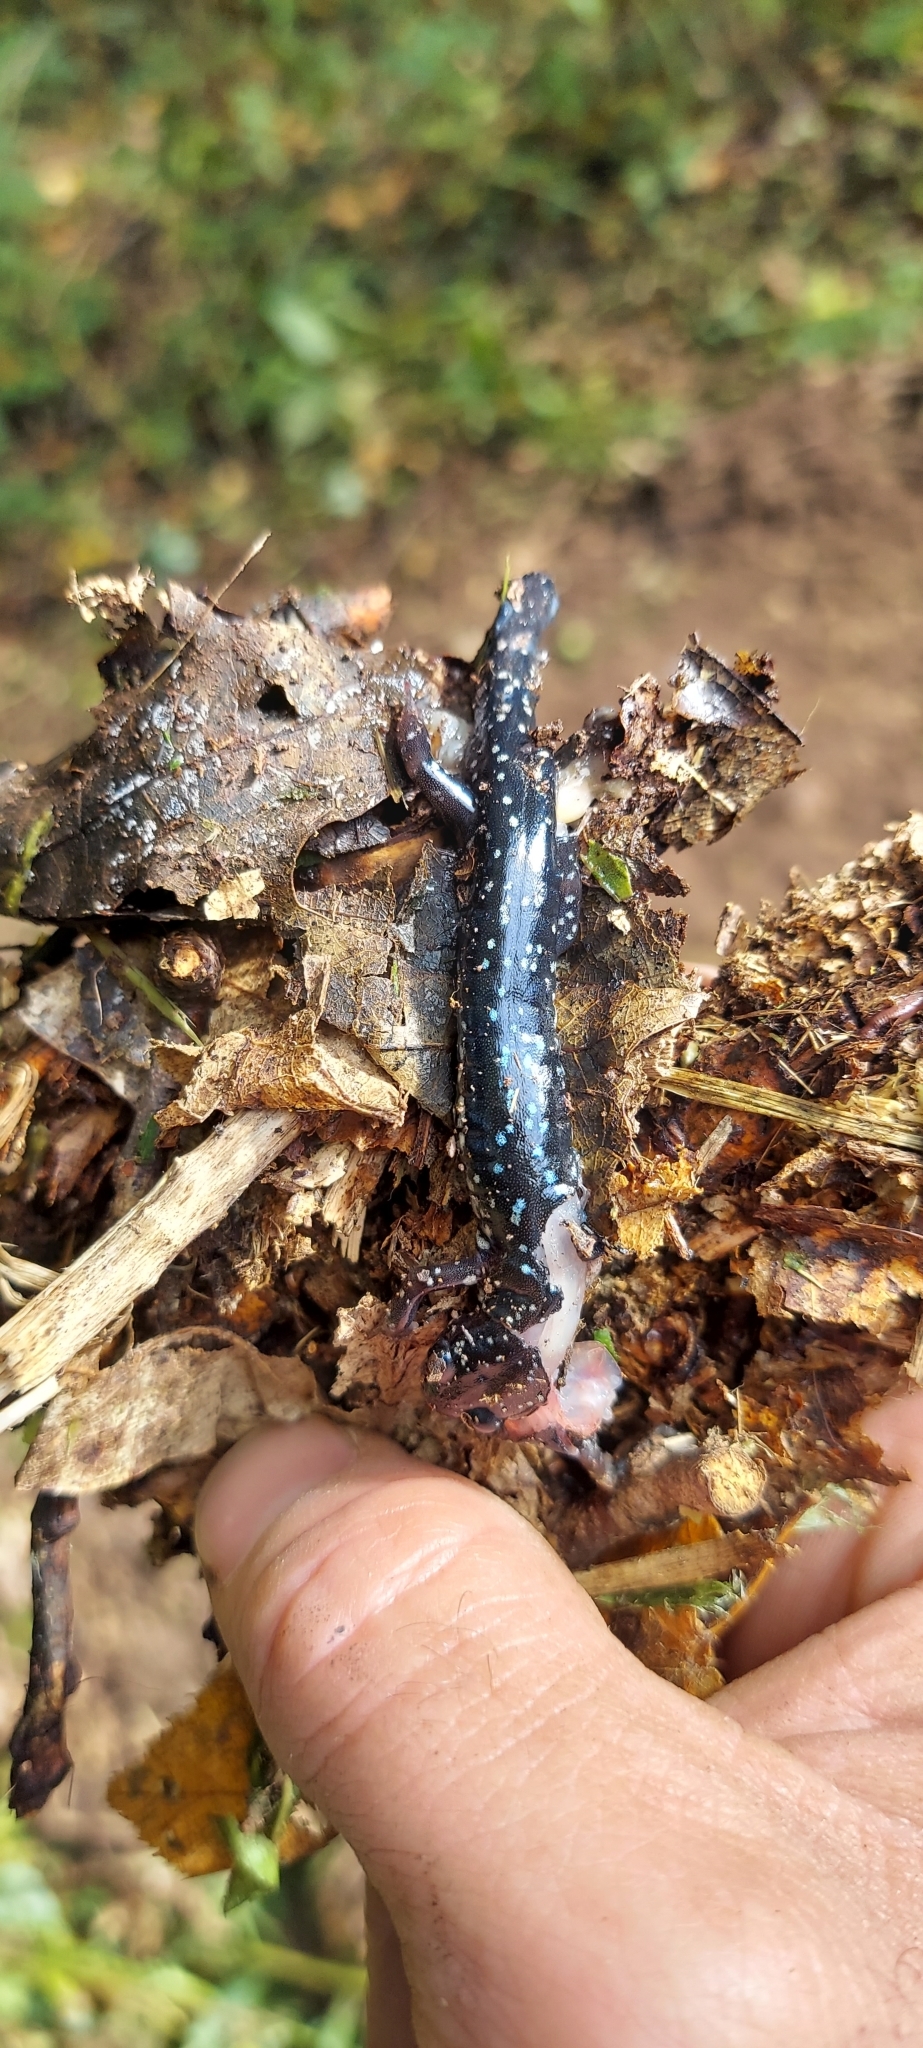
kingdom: Animalia
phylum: Chordata
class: Amphibia
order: Caudata
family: Plethodontidae
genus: Plethodon
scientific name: Plethodon glutinosus
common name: Northern slimy salamander
